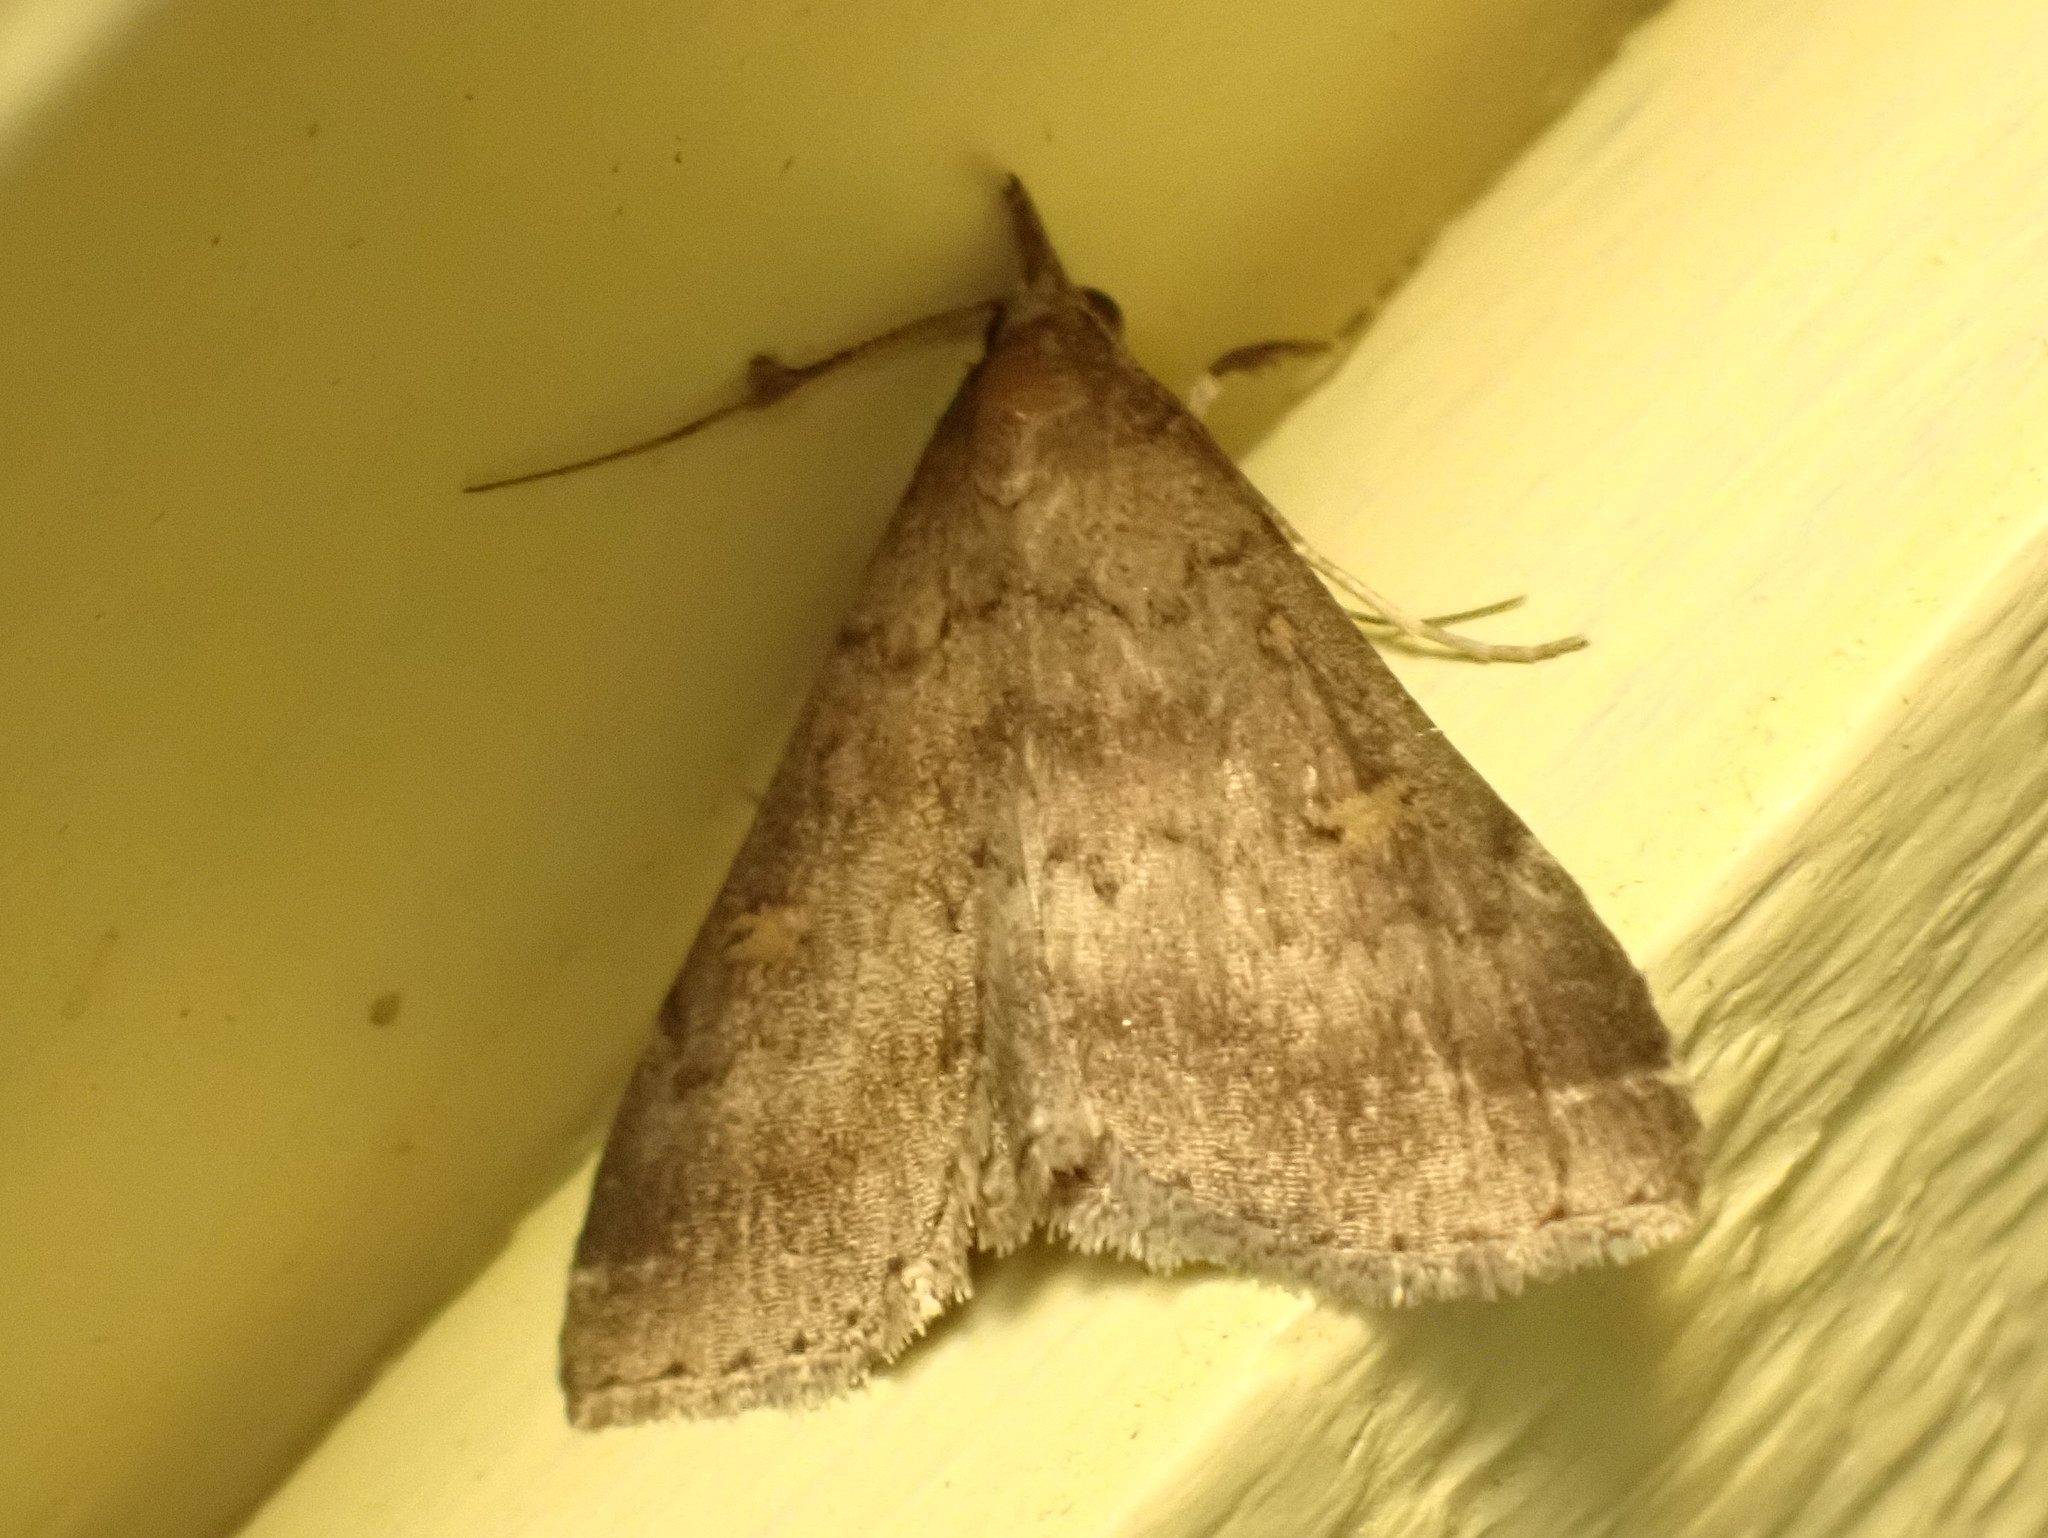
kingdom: Animalia
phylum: Arthropoda
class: Insecta
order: Lepidoptera
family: Erebidae
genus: Renia
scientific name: Renia sobrialis
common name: Sober renia moth
